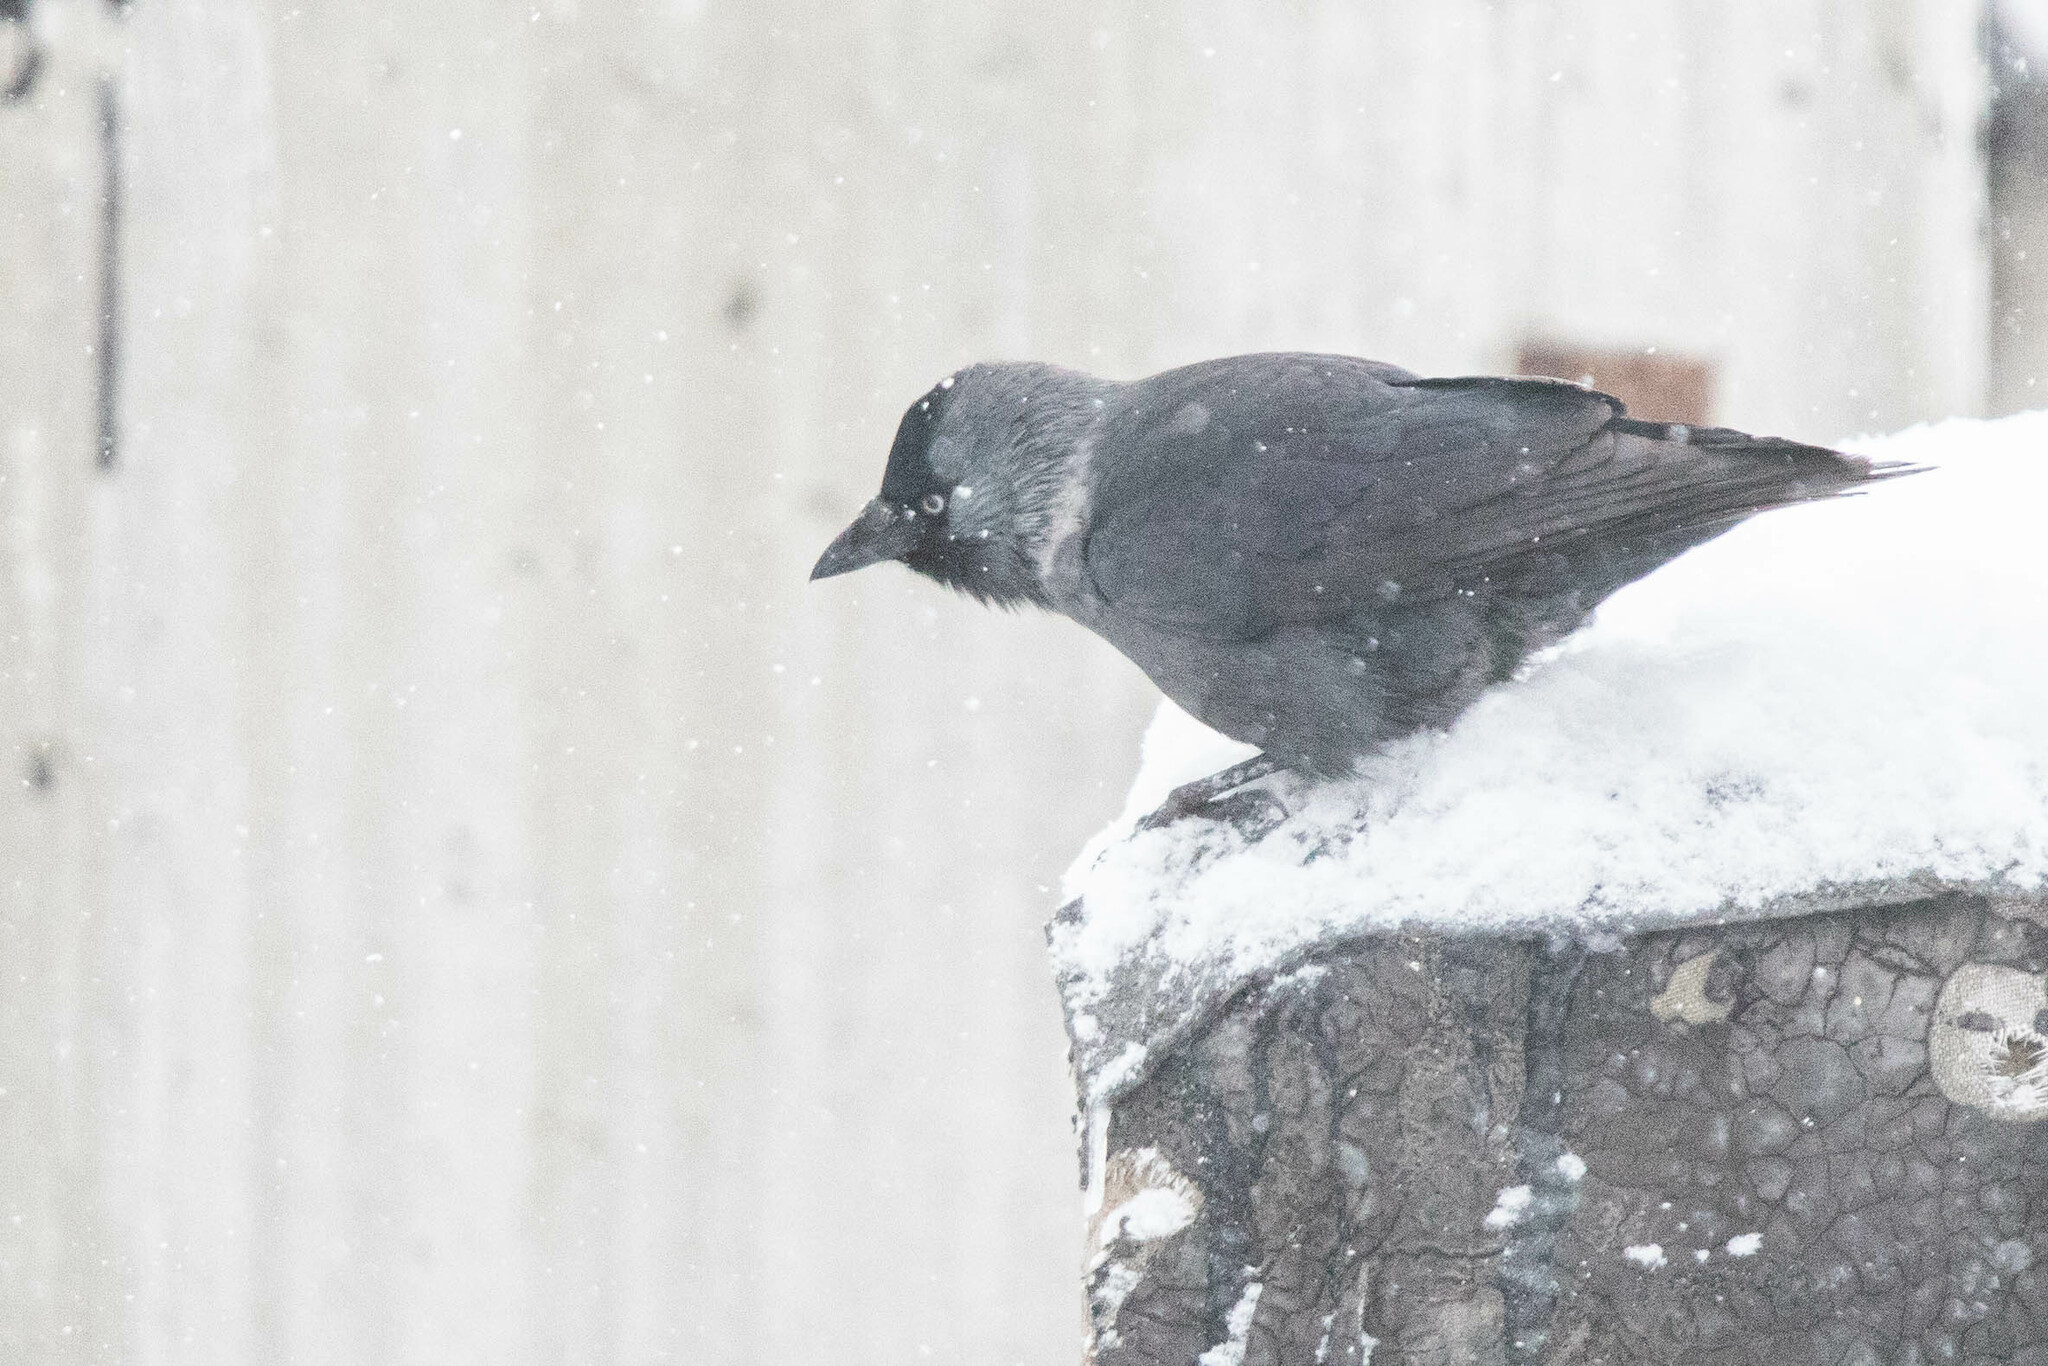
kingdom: Animalia
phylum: Chordata
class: Aves
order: Passeriformes
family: Corvidae
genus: Coloeus
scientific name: Coloeus monedula
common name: Western jackdaw
